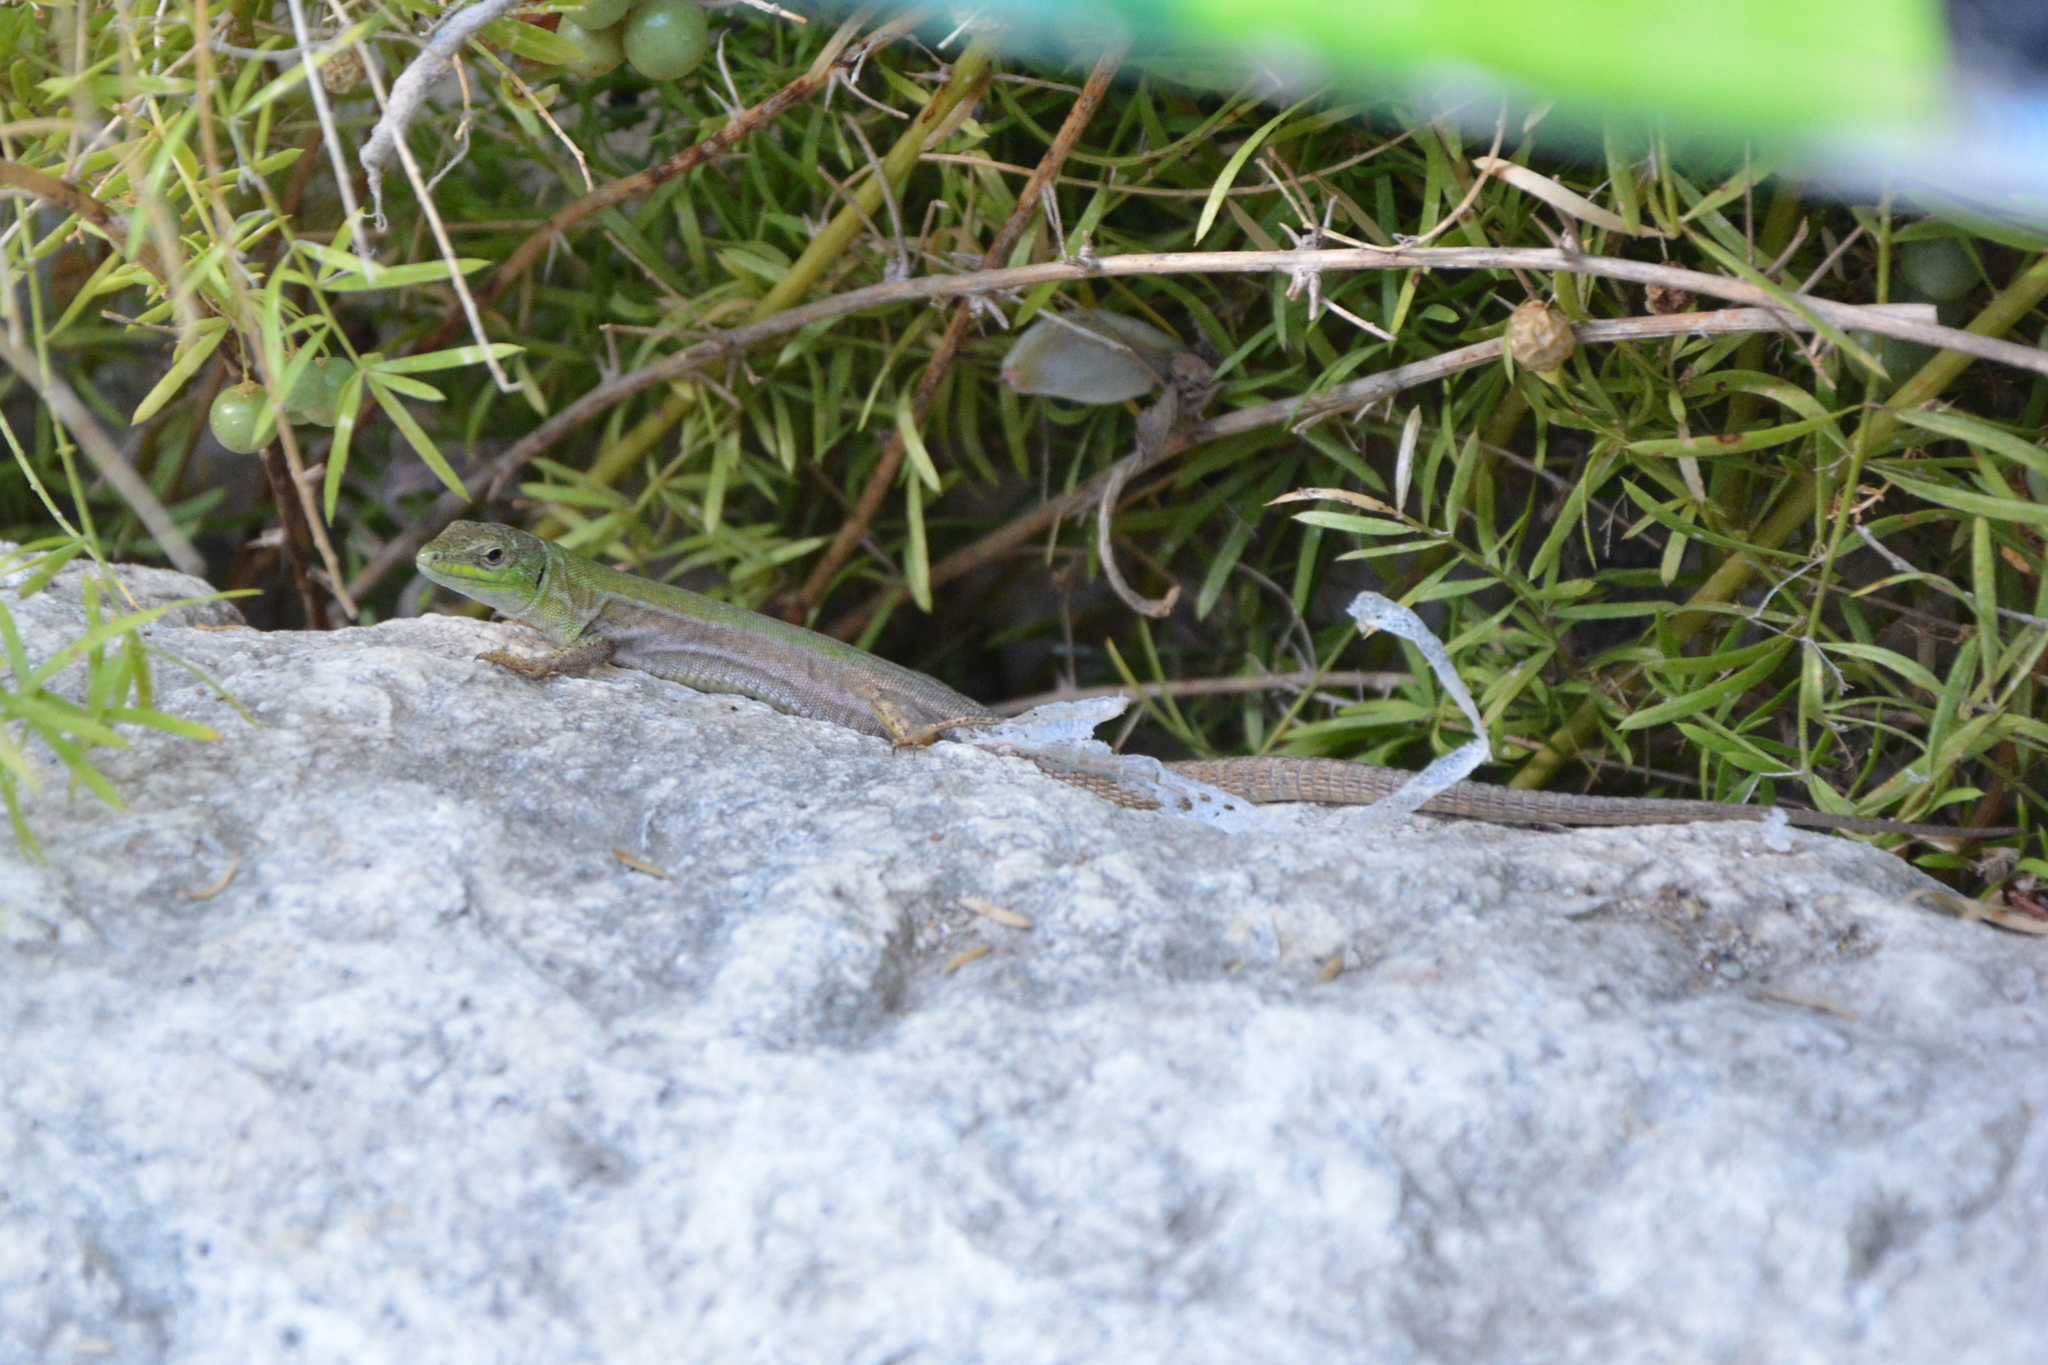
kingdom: Animalia
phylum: Chordata
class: Squamata
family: Lacertidae
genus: Podarcis
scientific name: Podarcis siculus
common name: Italian wall lizard
